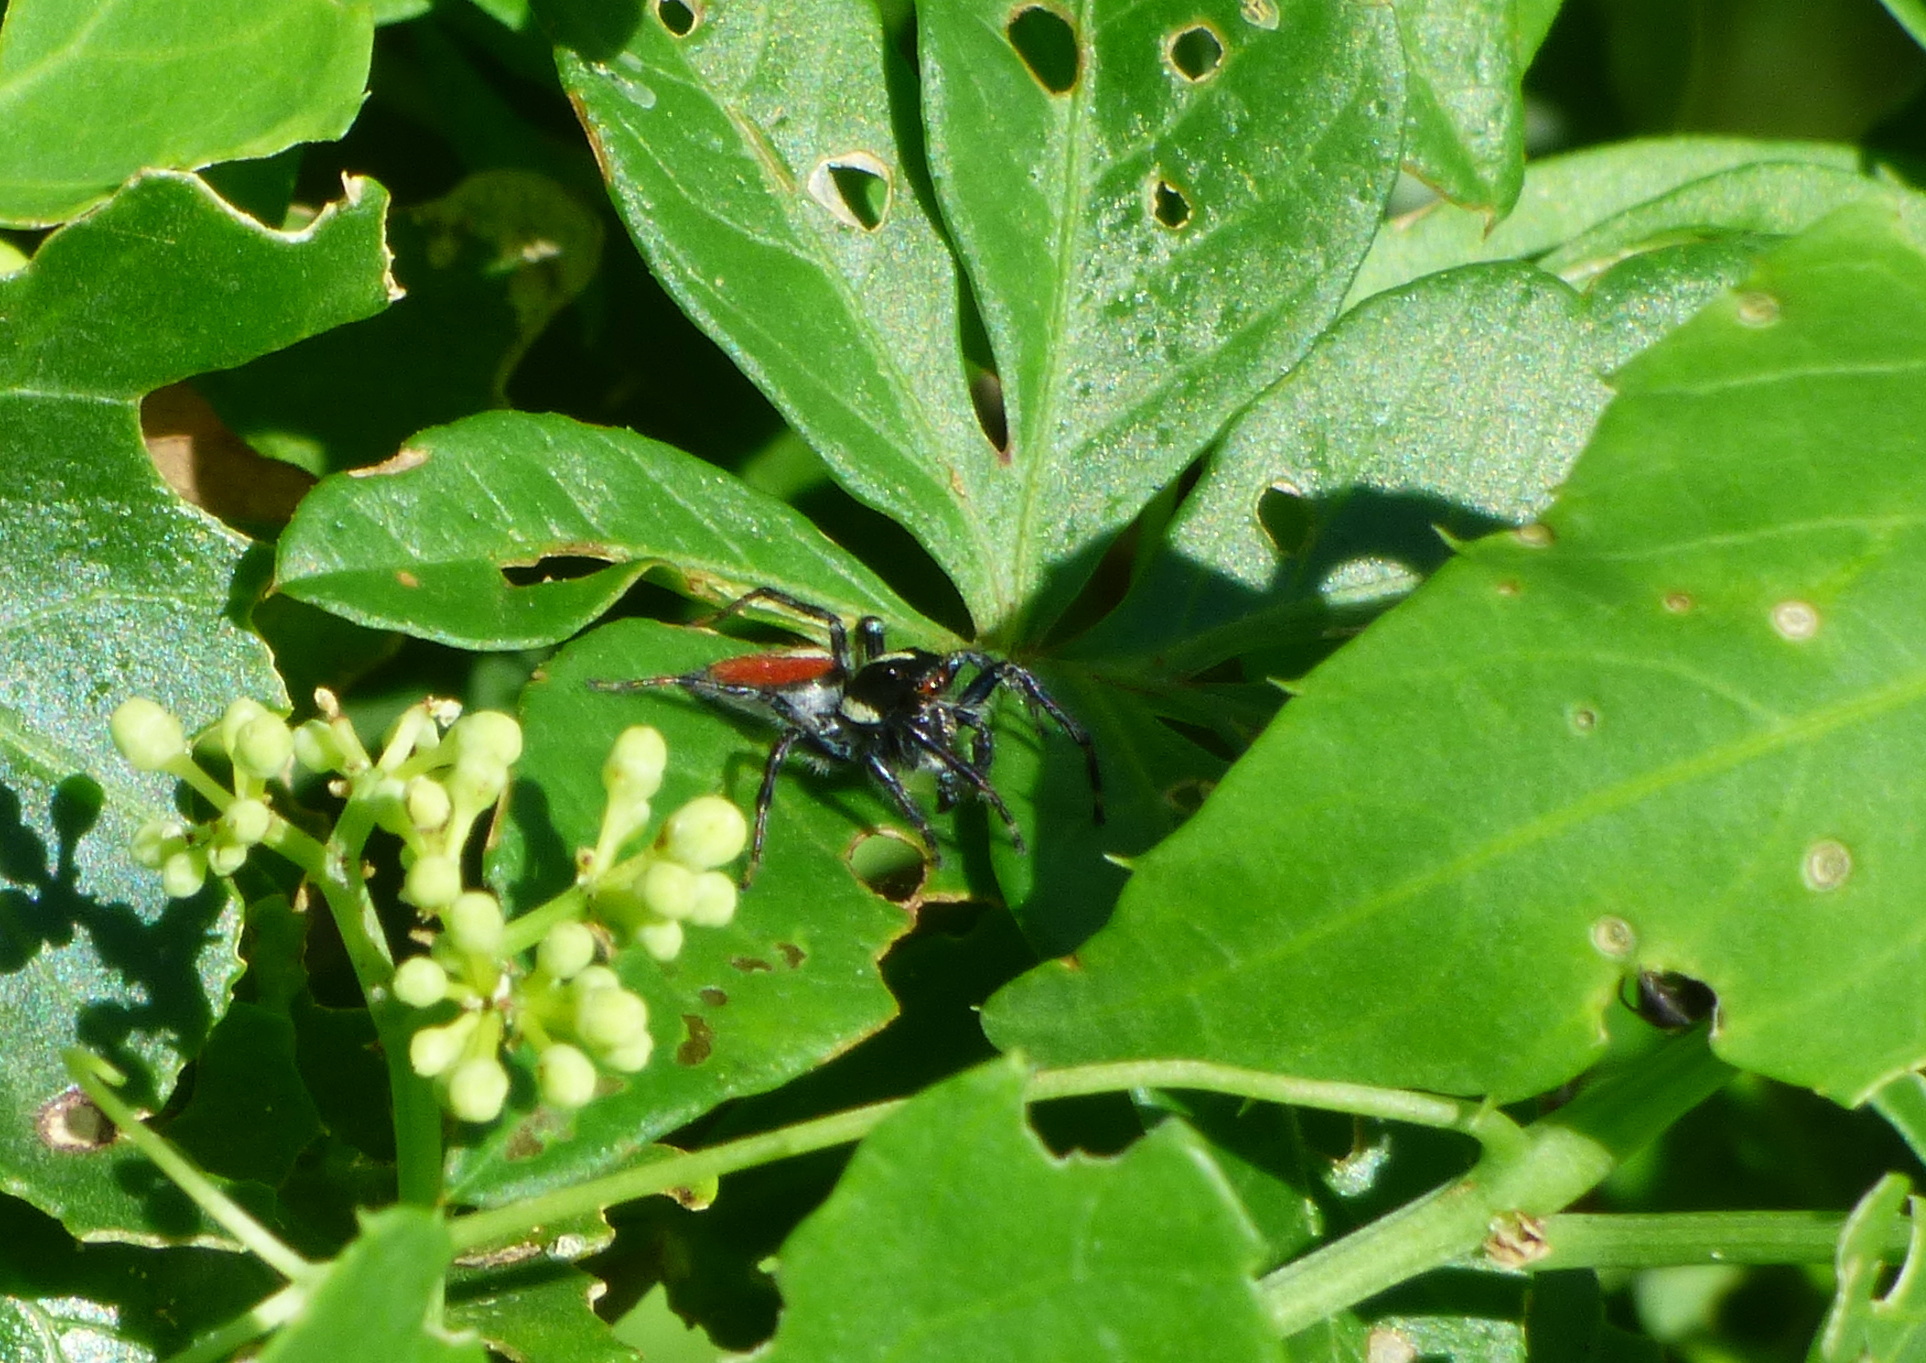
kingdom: Animalia
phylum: Arthropoda
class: Arachnida
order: Araneae
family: Salticidae
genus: Frigga
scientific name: Frigga quintensis
